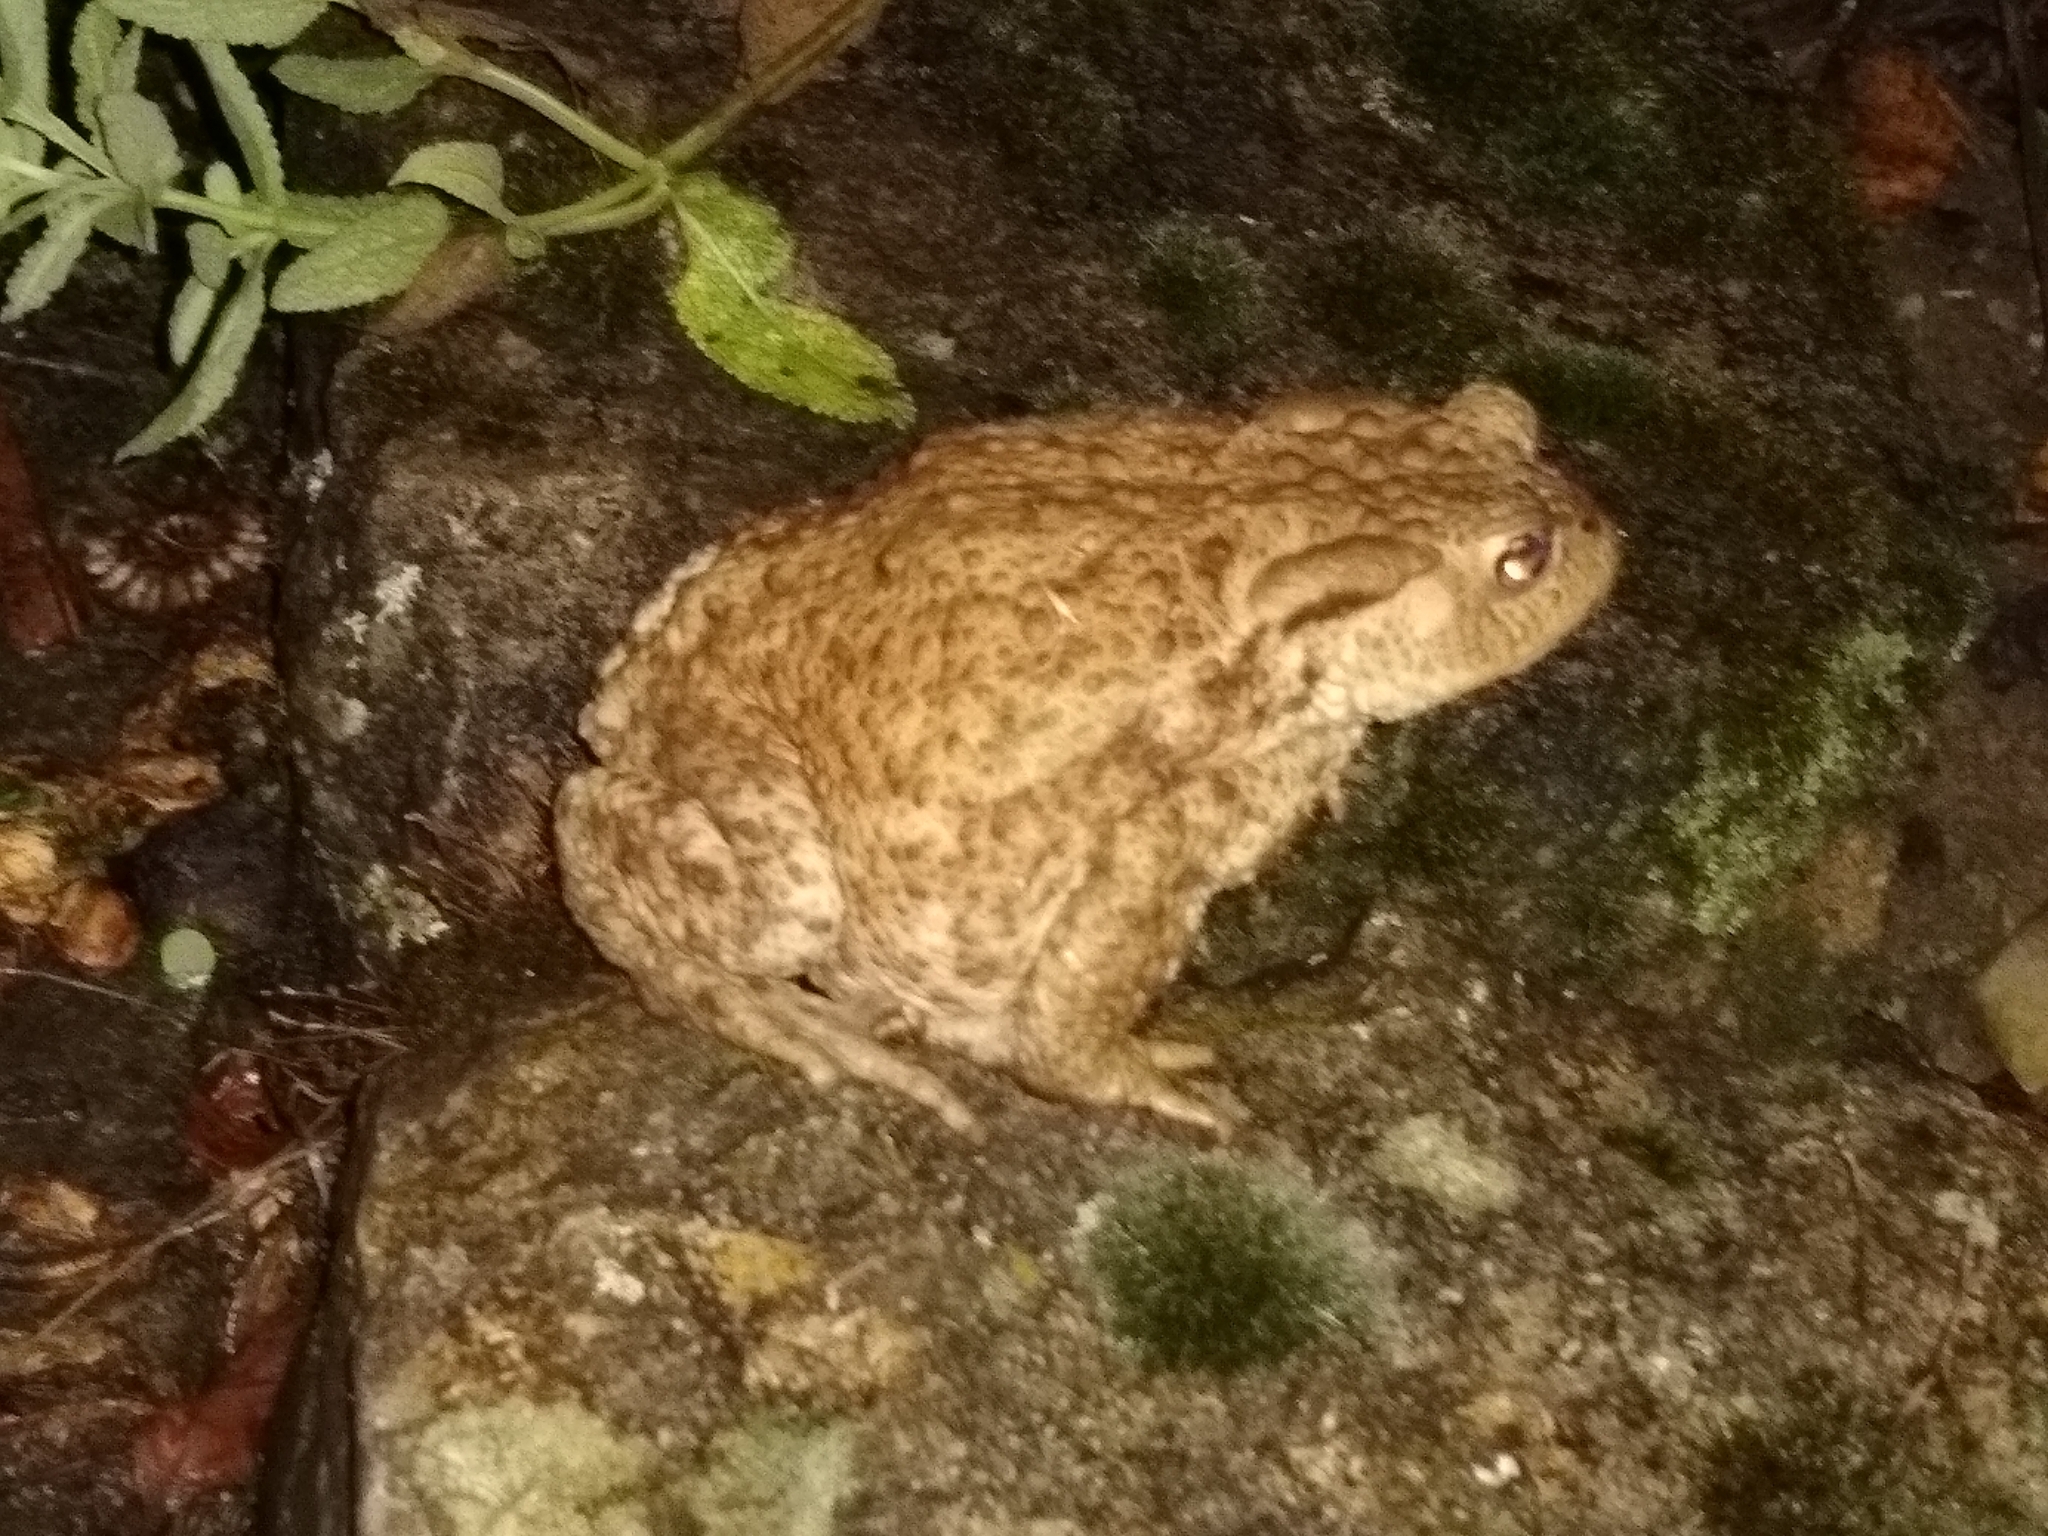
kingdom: Animalia
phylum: Chordata
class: Amphibia
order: Anura
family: Bufonidae
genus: Bufo
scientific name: Bufo bufo
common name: Common toad
